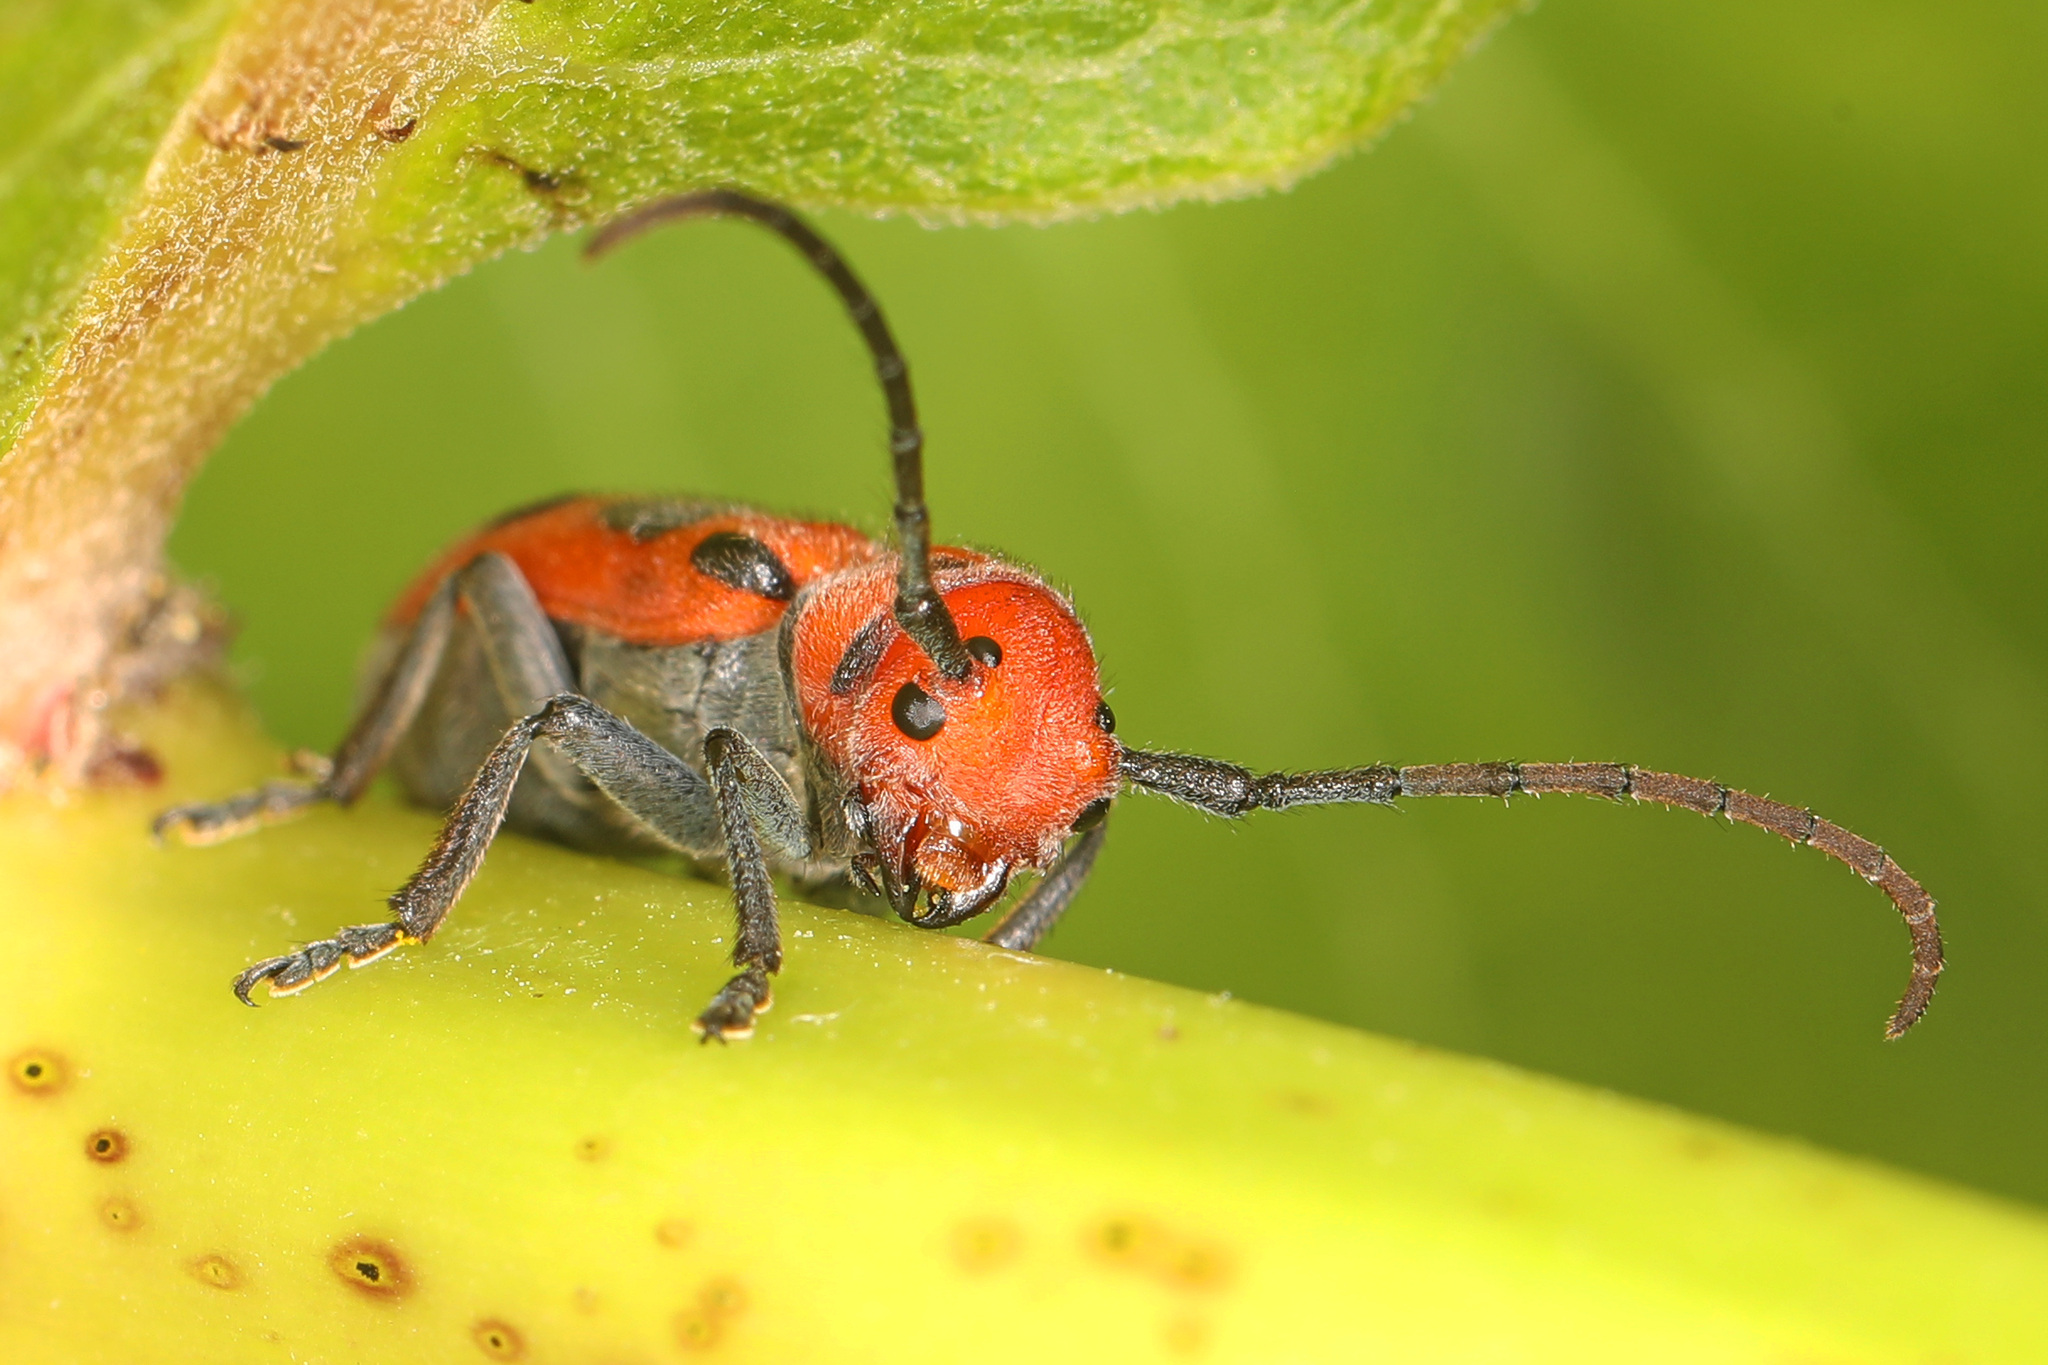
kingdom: Animalia
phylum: Arthropoda
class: Insecta
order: Coleoptera
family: Cerambycidae
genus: Tetraopes
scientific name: Tetraopes tetrophthalmus
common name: Red milkweed beetle
